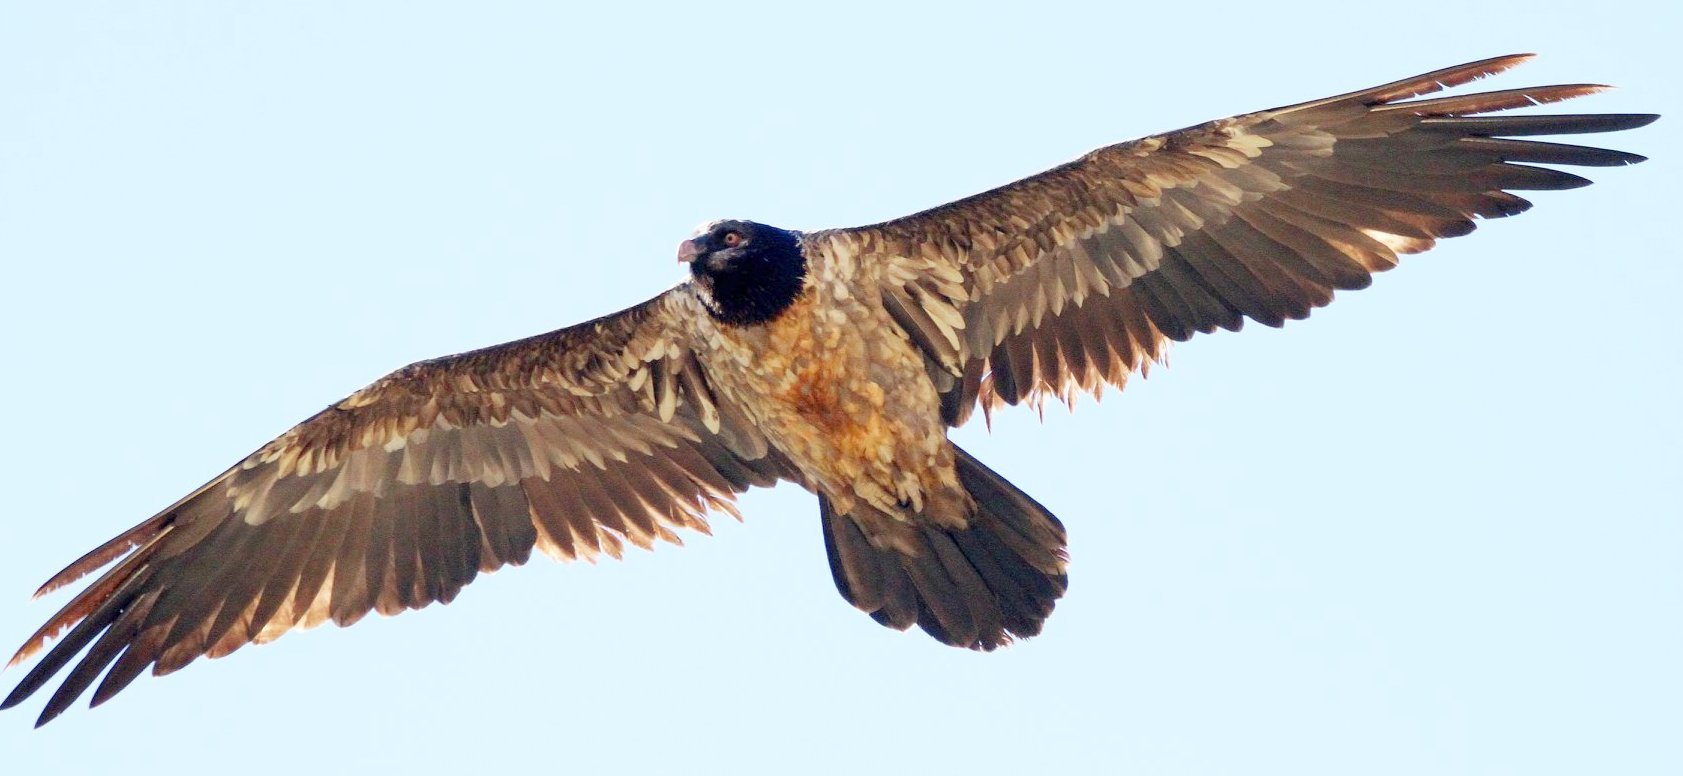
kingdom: Animalia
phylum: Chordata
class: Aves
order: Accipitriformes
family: Accipitridae
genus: Gypaetus
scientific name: Gypaetus barbatus
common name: Bearded vulture
